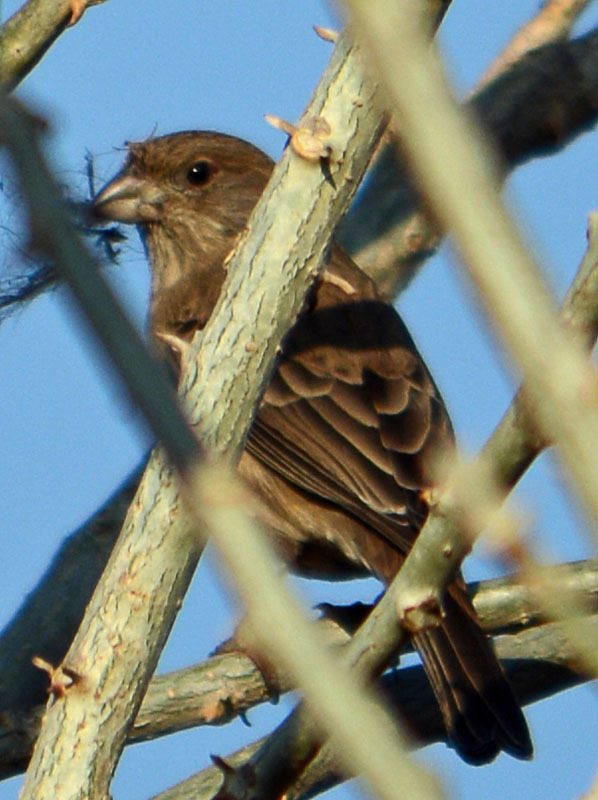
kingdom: Animalia
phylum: Chordata
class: Aves
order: Passeriformes
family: Fringillidae
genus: Haemorhous
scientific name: Haemorhous mexicanus
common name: House finch
